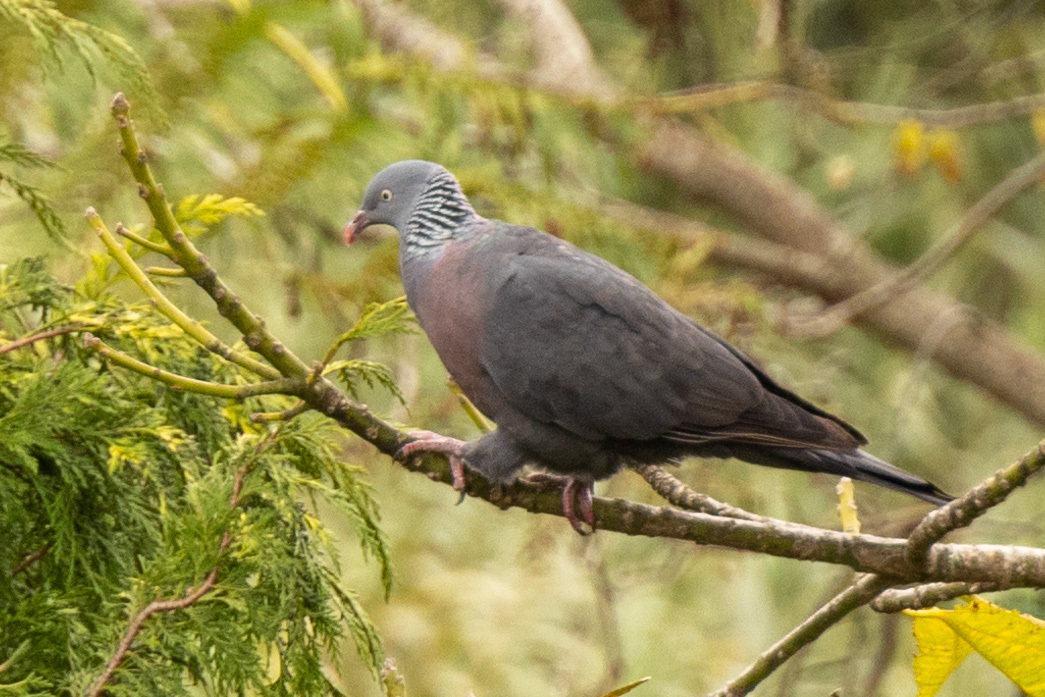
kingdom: Animalia
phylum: Chordata
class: Aves
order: Columbiformes
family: Columbidae
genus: Columba
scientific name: Columba trocaz
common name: Trocaz pigeon
